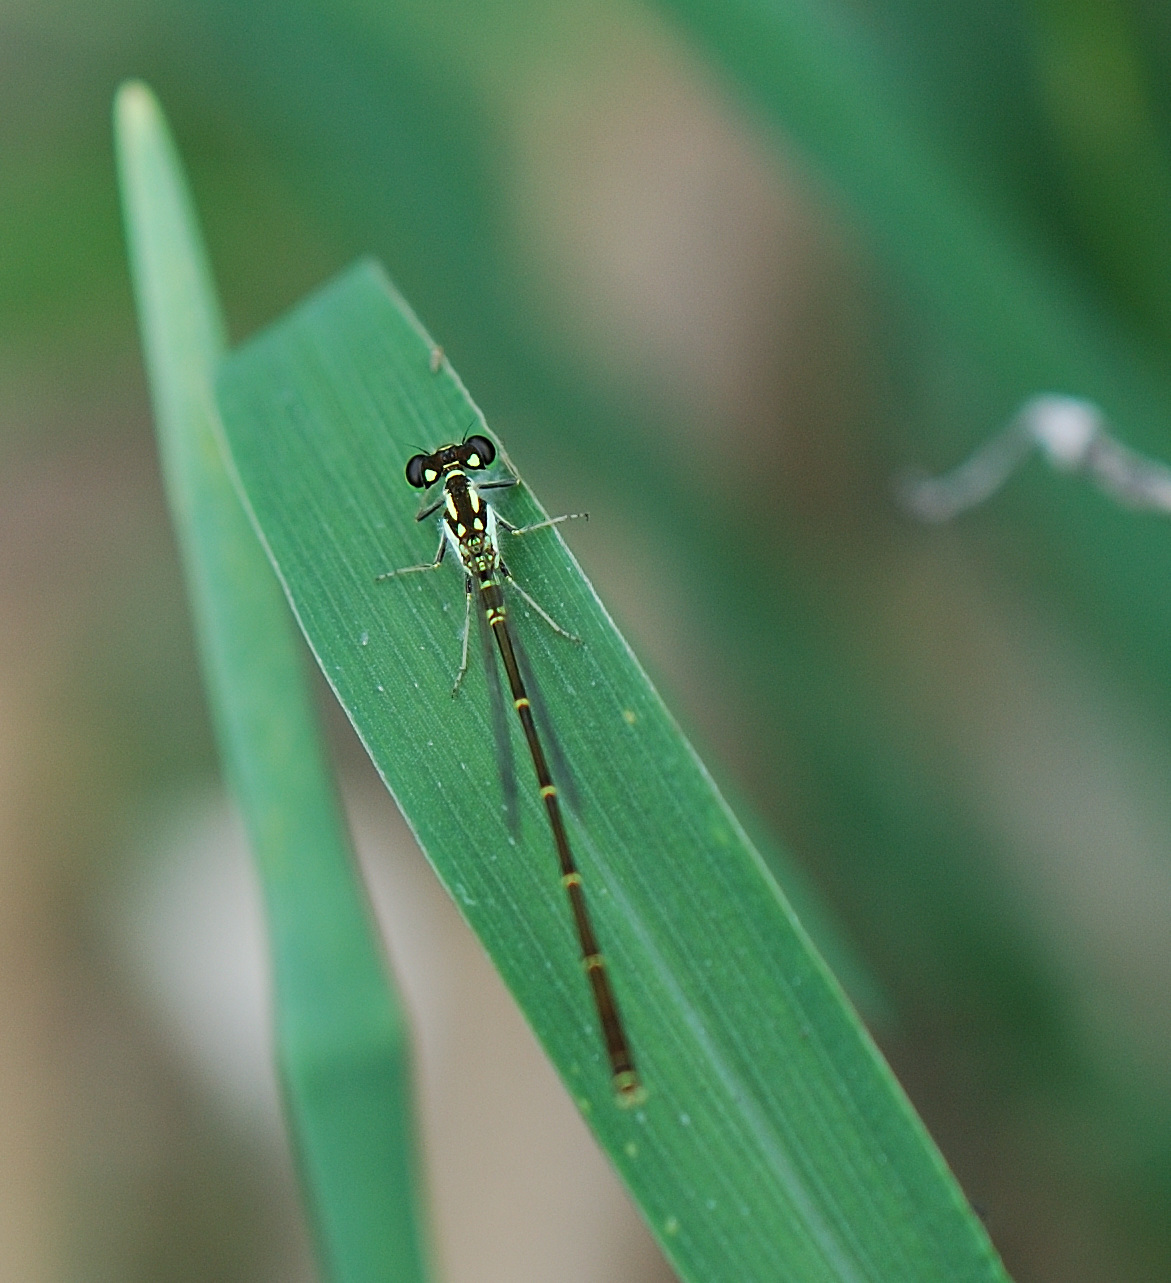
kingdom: Animalia
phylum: Arthropoda
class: Insecta
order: Odonata
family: Coenagrionidae
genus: Ischnura
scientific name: Ischnura posita
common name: Fragile forktail
